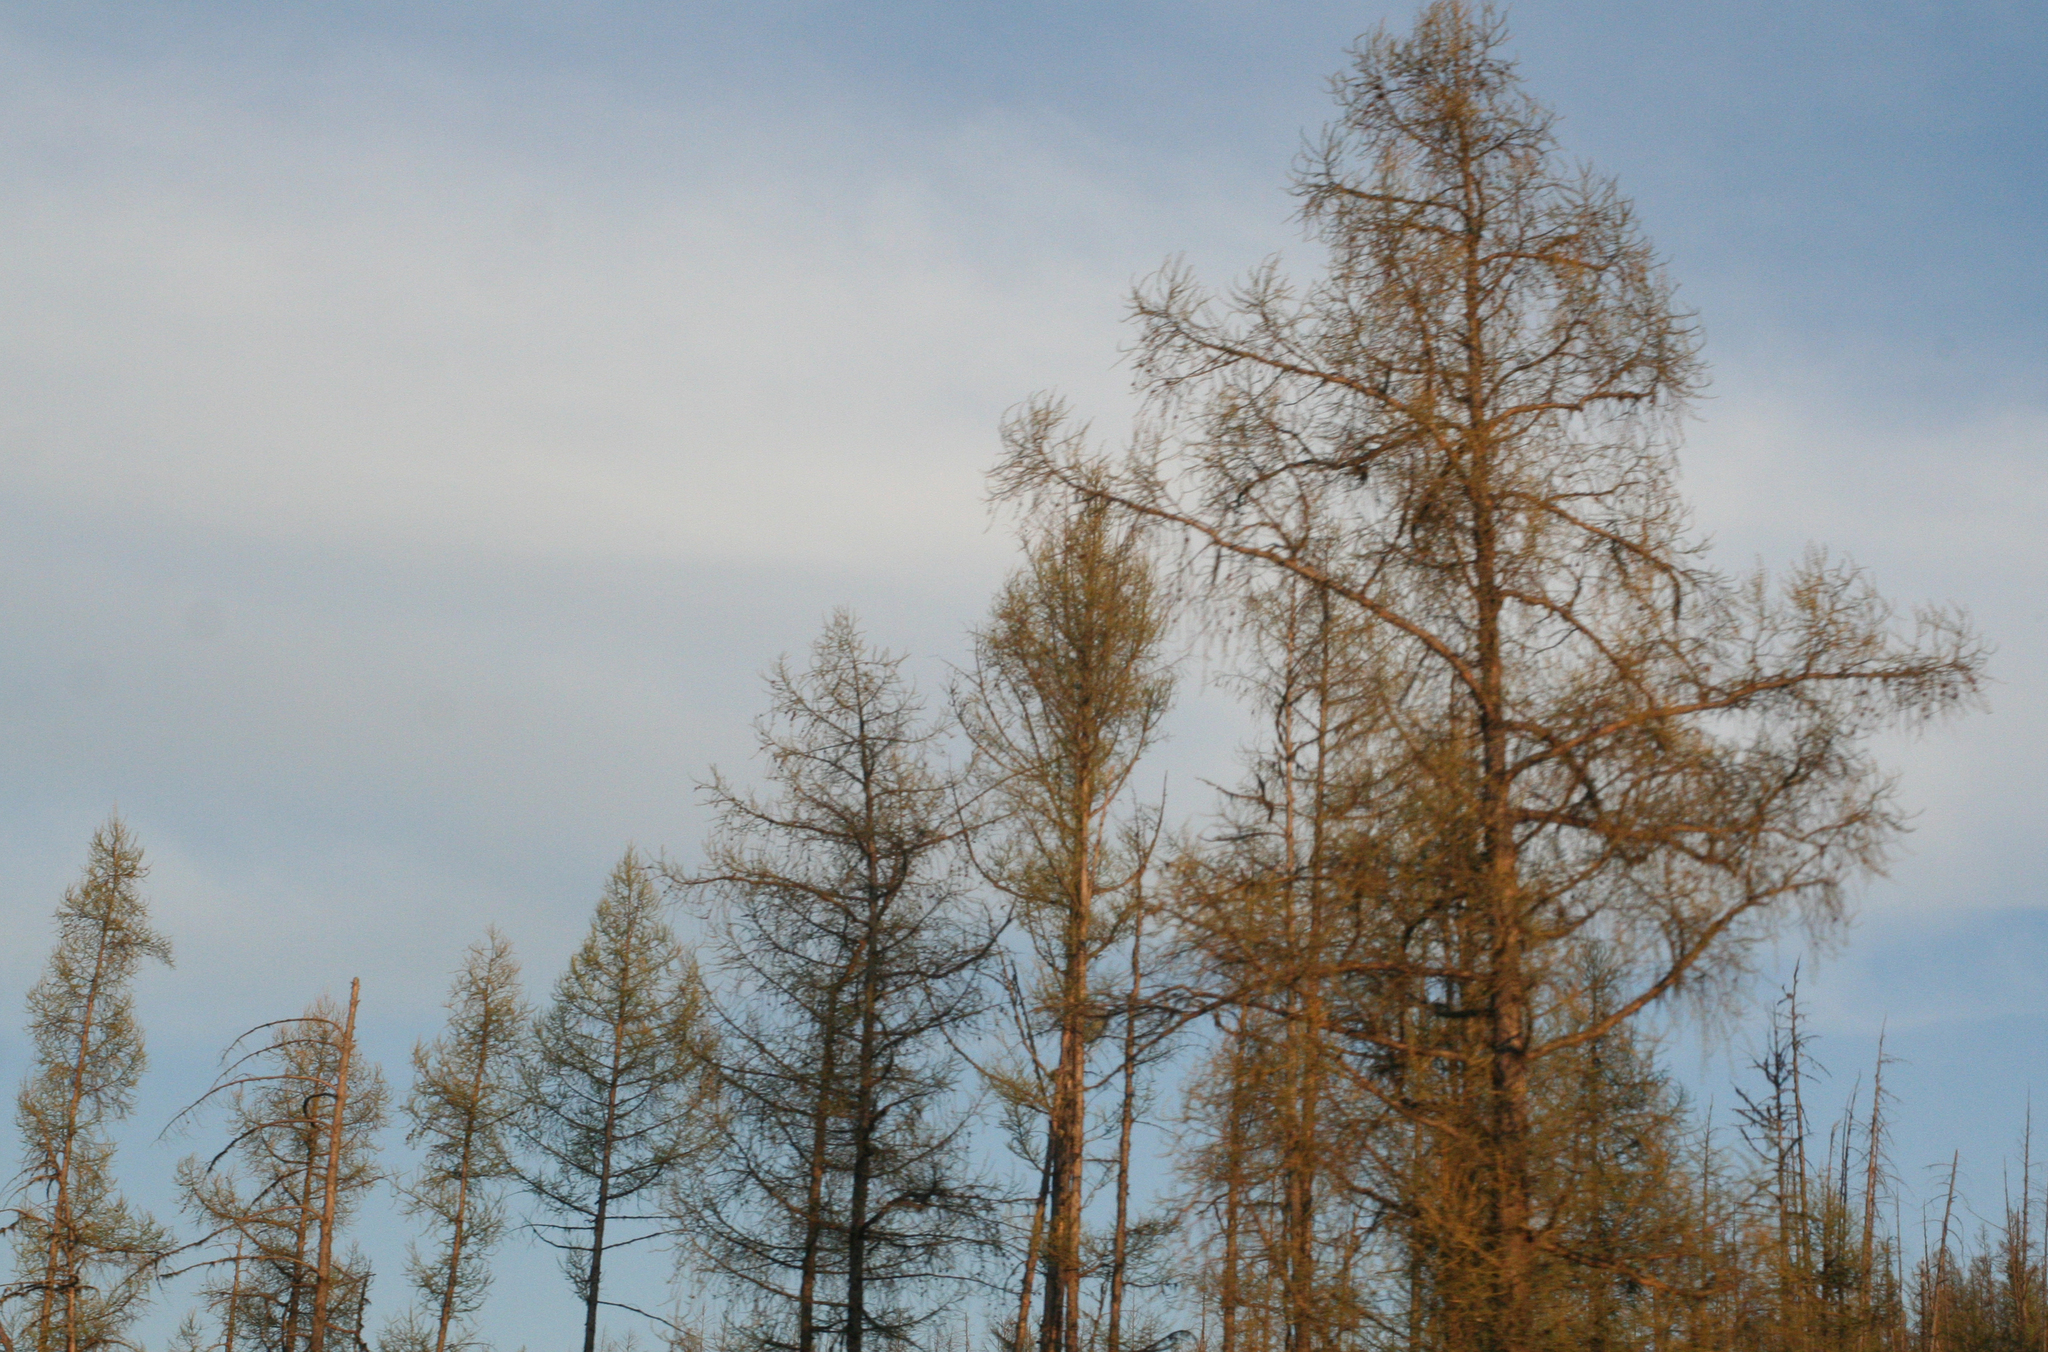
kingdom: Plantae
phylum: Tracheophyta
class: Pinopsida
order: Pinales
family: Pinaceae
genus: Larix
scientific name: Larix sibirica
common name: Siberian larch
